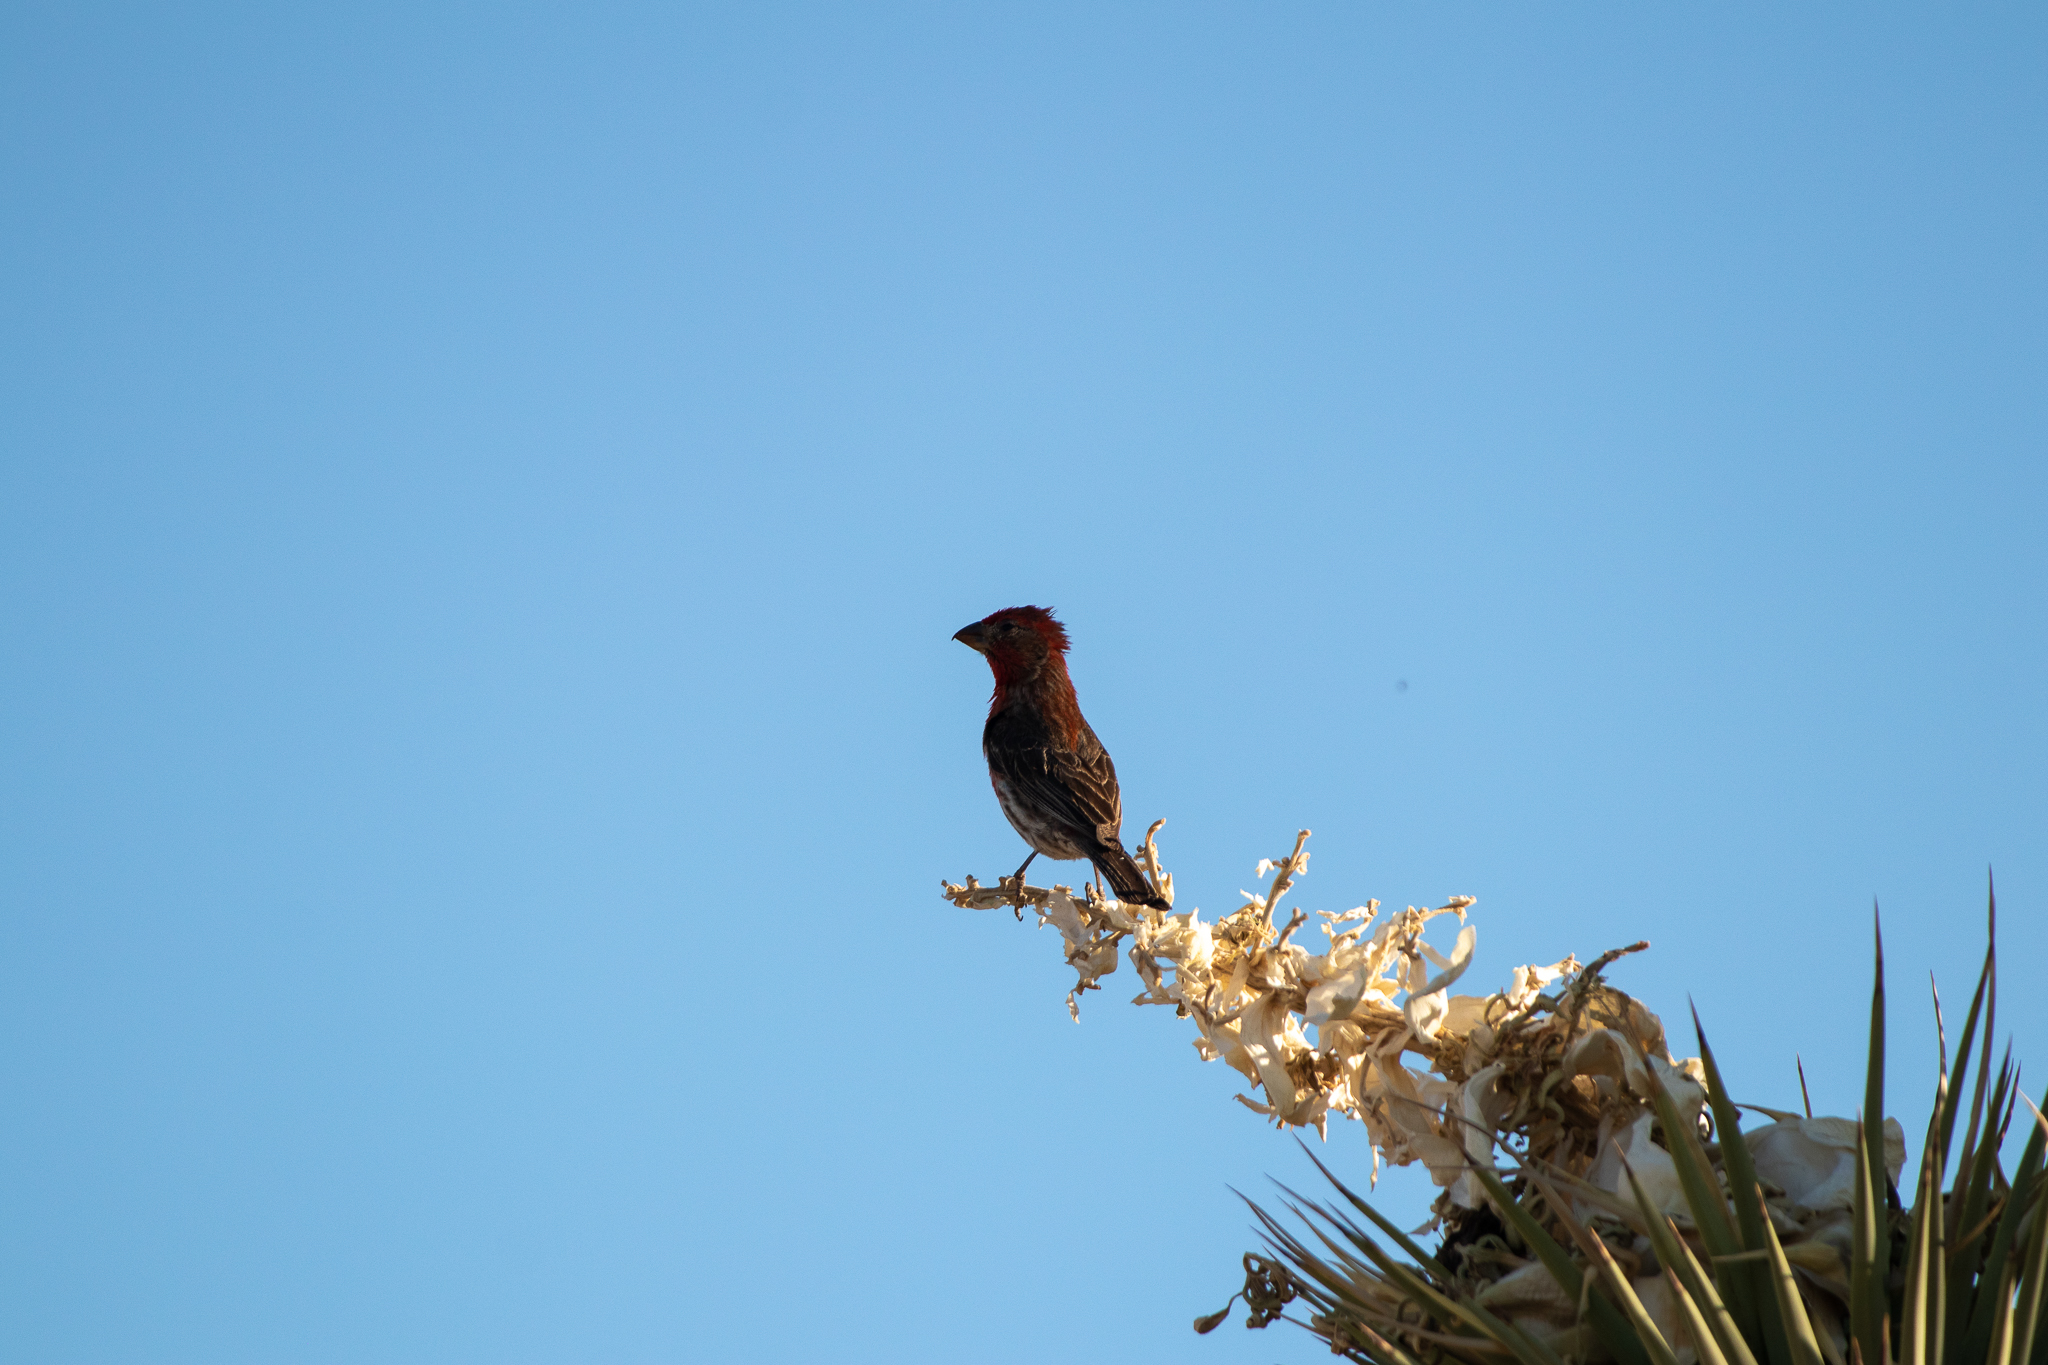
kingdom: Animalia
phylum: Chordata
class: Aves
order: Passeriformes
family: Fringillidae
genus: Haemorhous
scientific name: Haemorhous mexicanus
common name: House finch
